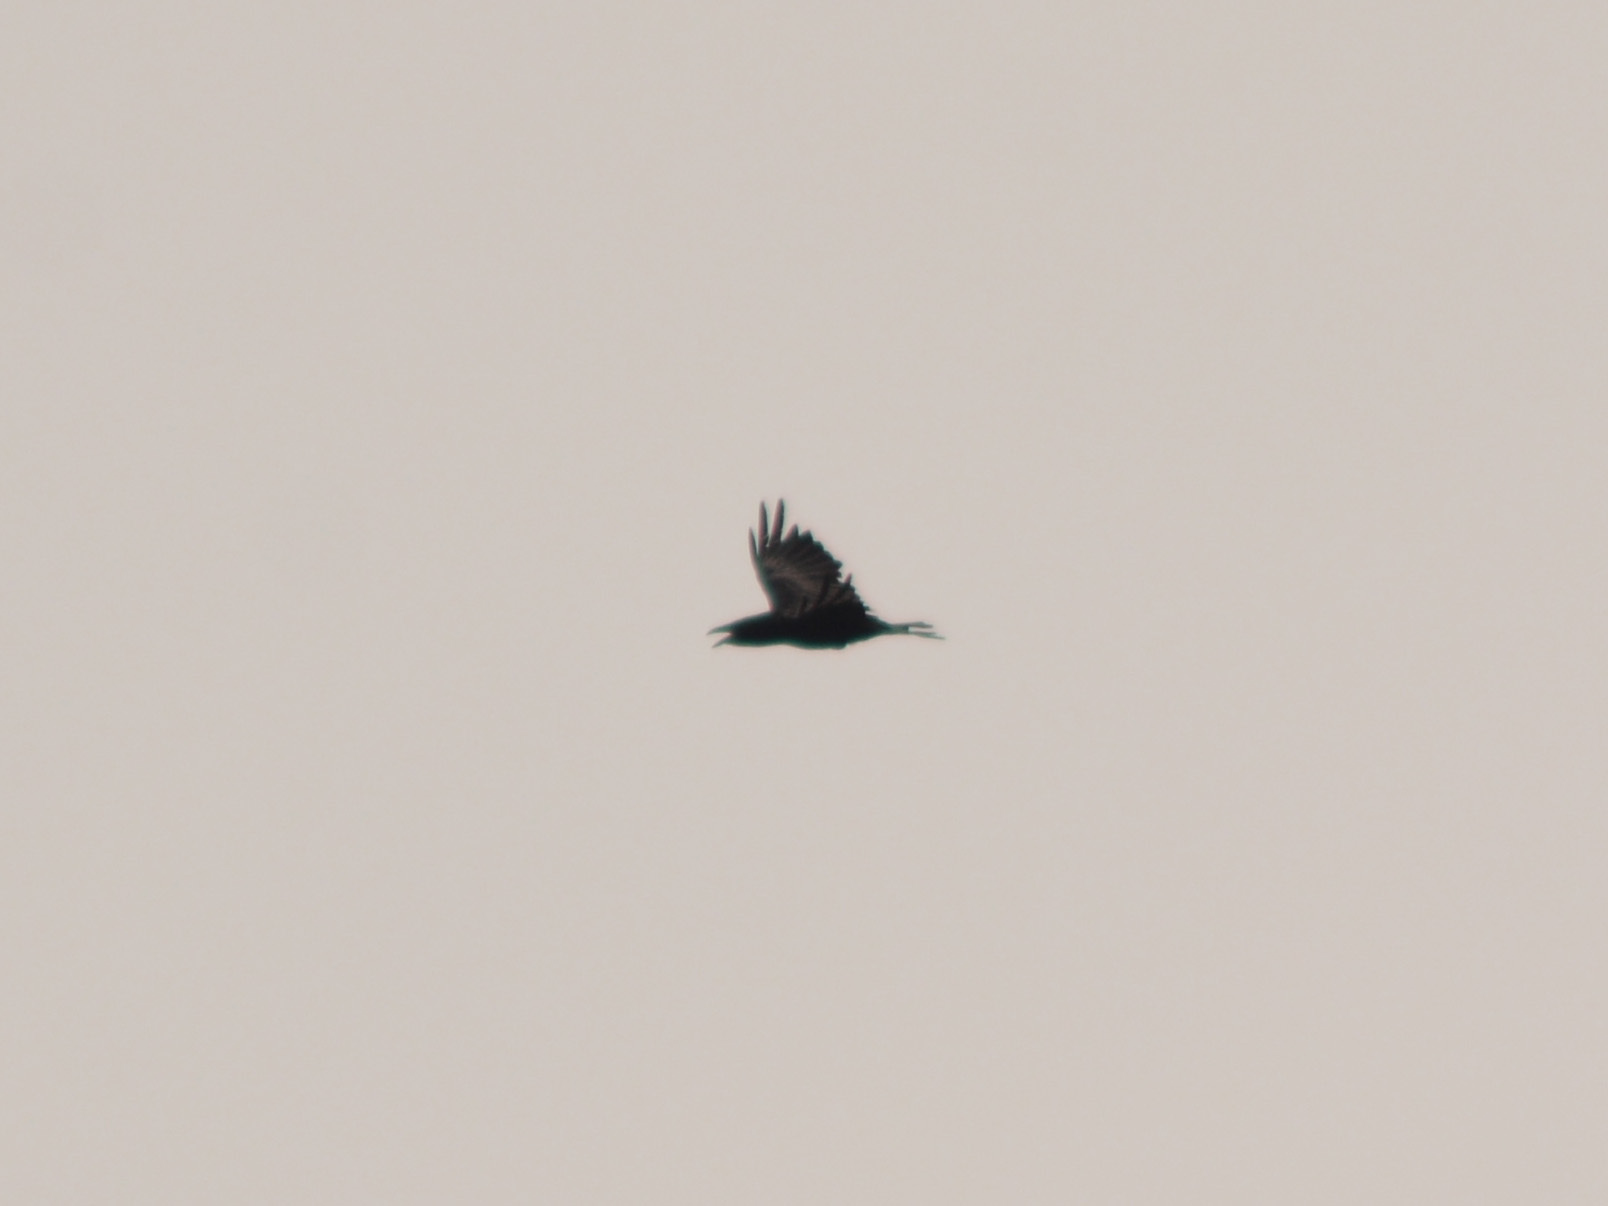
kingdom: Animalia
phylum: Chordata
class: Aves
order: Passeriformes
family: Corvidae
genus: Corvus
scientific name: Corvus corax
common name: Common raven
